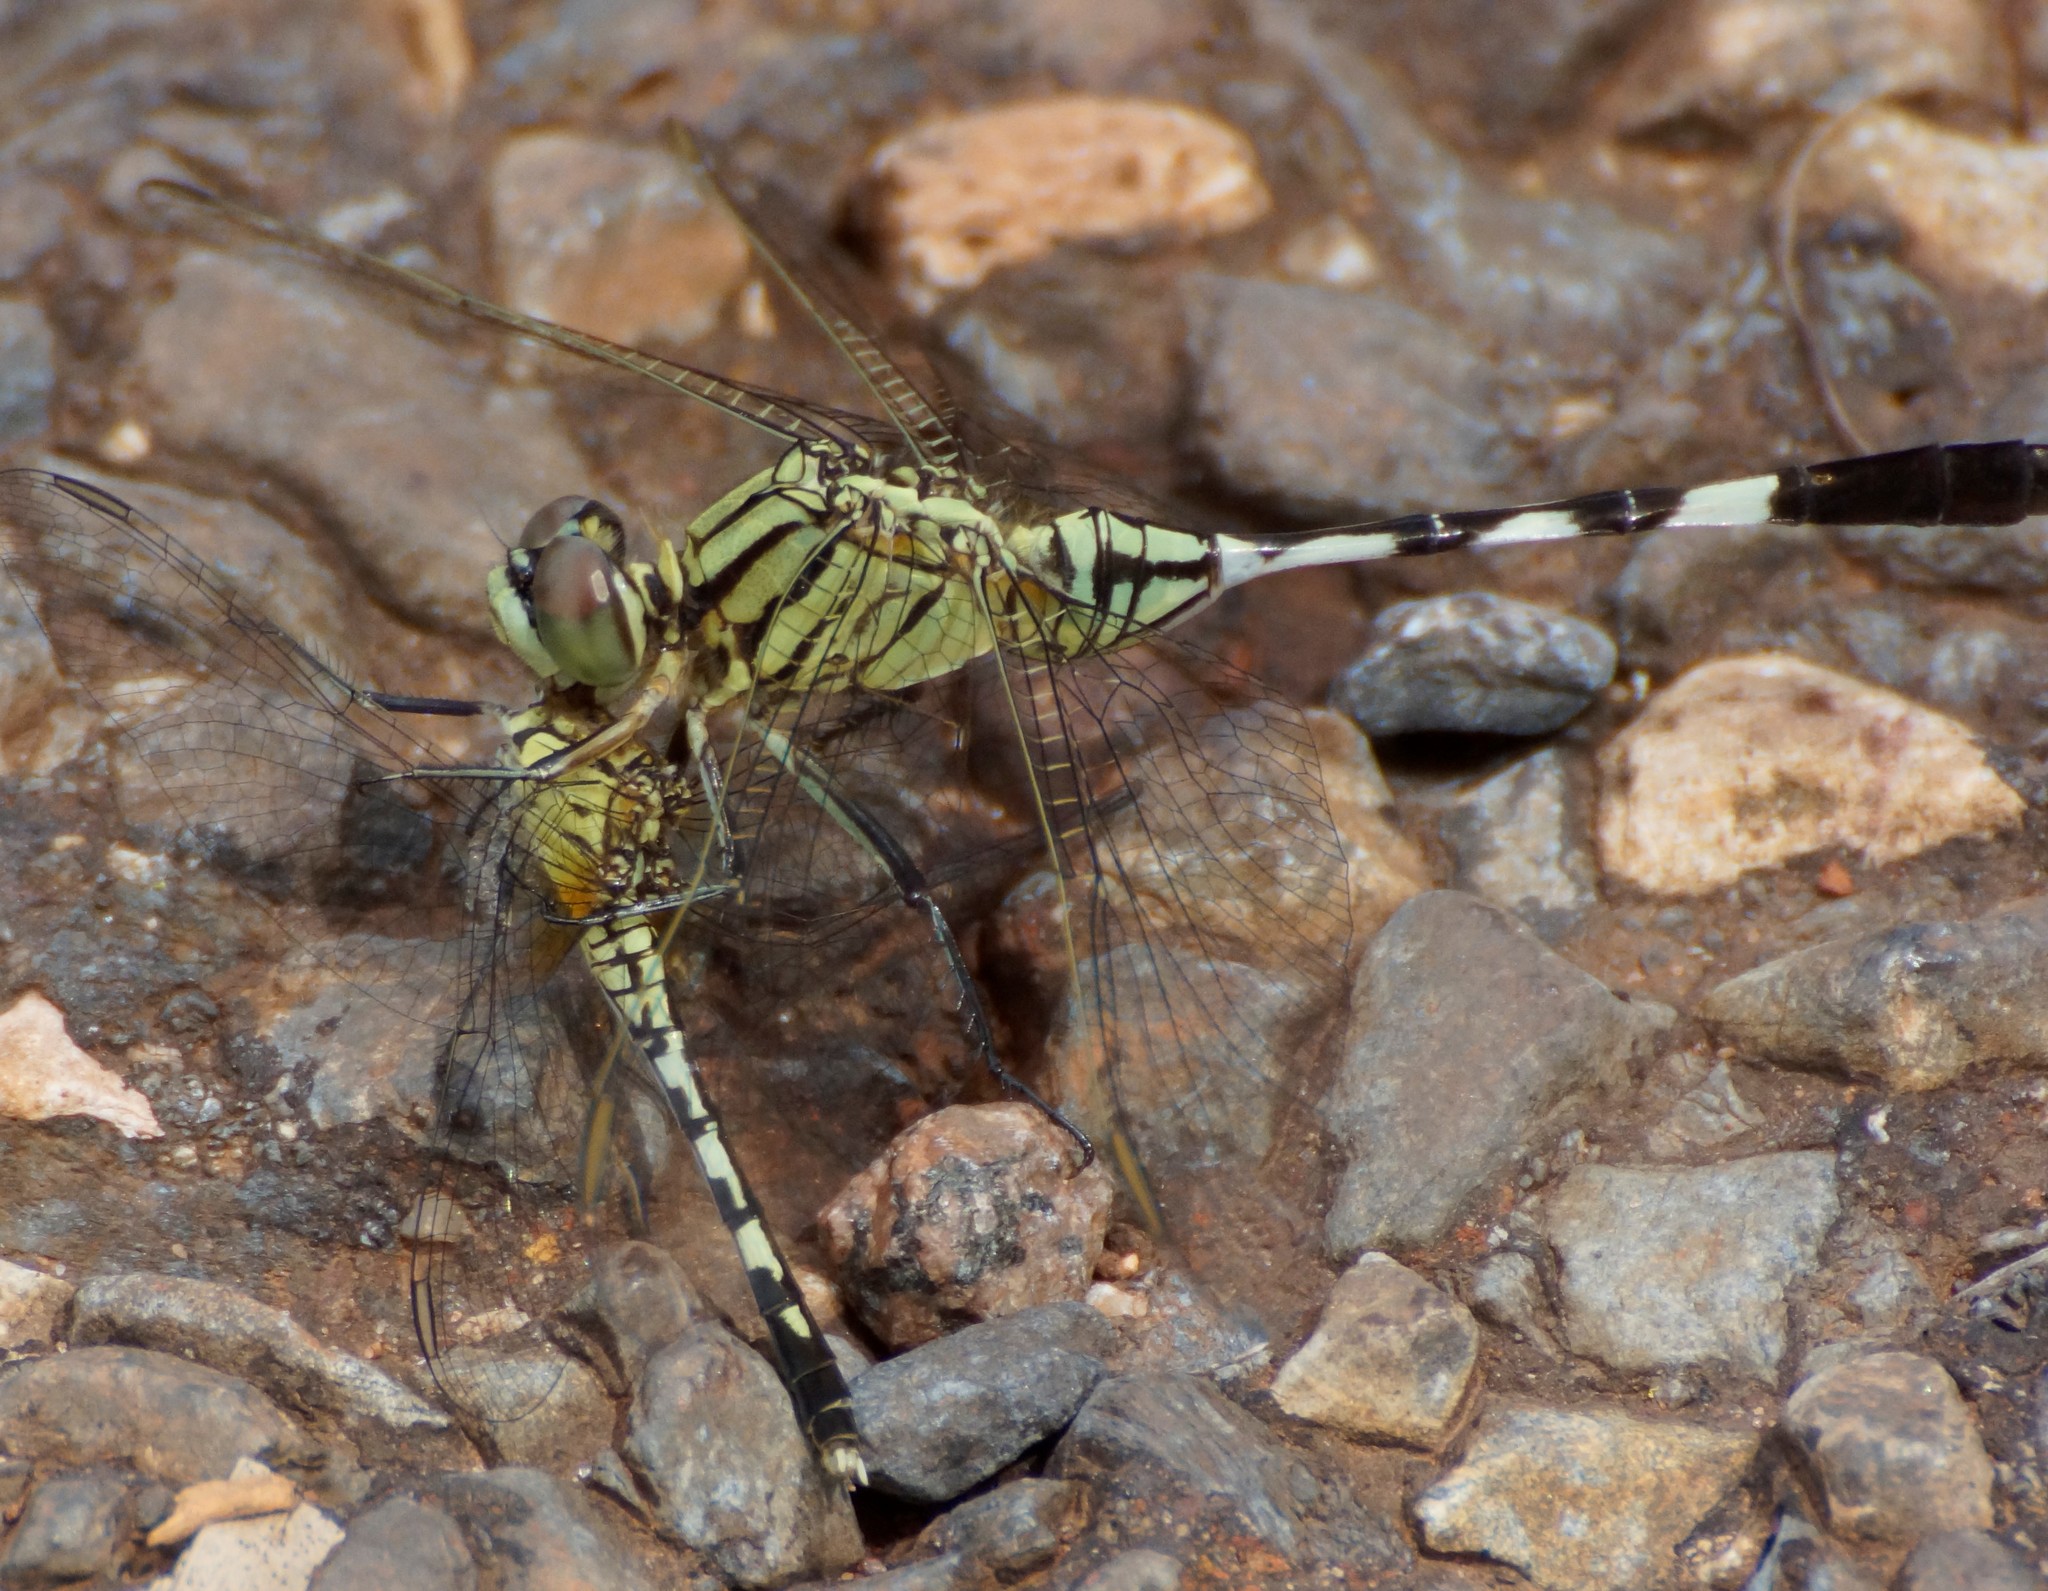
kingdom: Animalia
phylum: Arthropoda
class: Insecta
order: Odonata
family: Libellulidae
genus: Orthetrum
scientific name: Orthetrum sabina
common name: Slender skimmer
